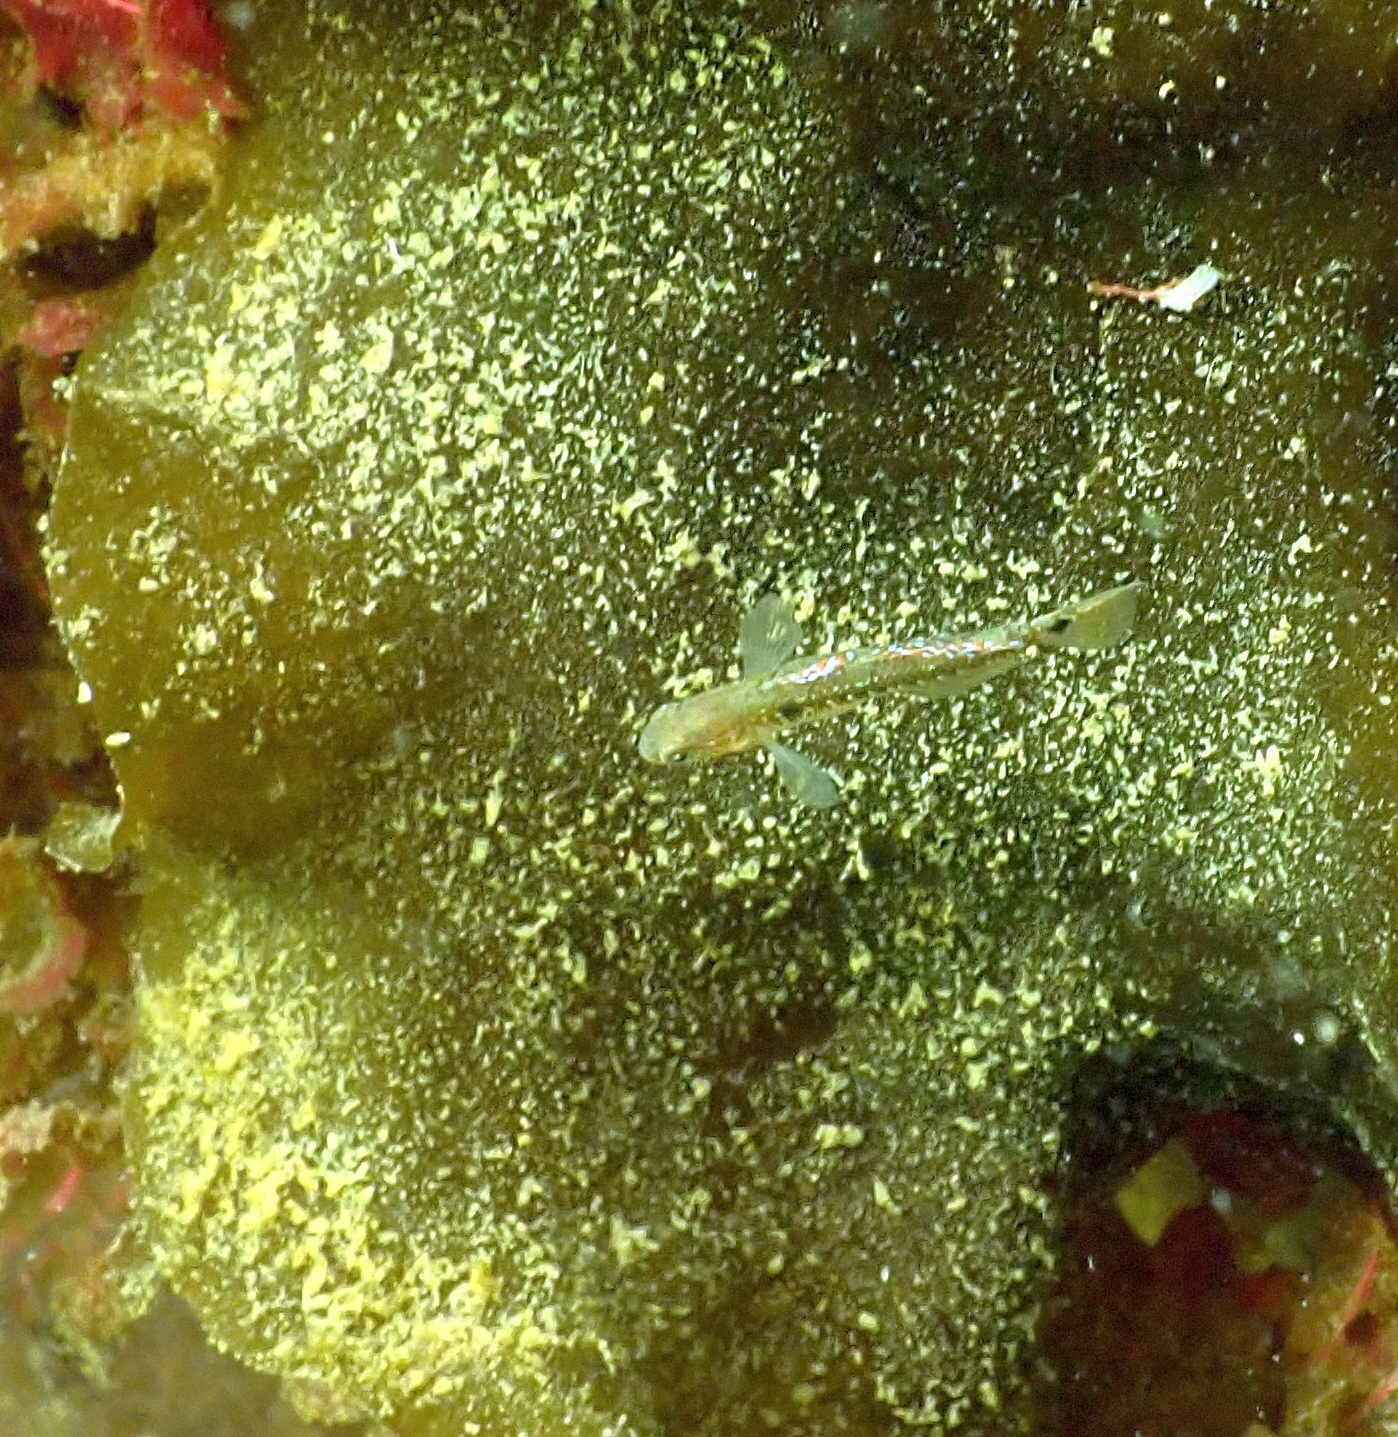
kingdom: Animalia
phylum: Chordata
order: Perciformes
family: Gobiidae
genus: Gobiusculus
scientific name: Gobiusculus flavescens
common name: Two-spotted goby
